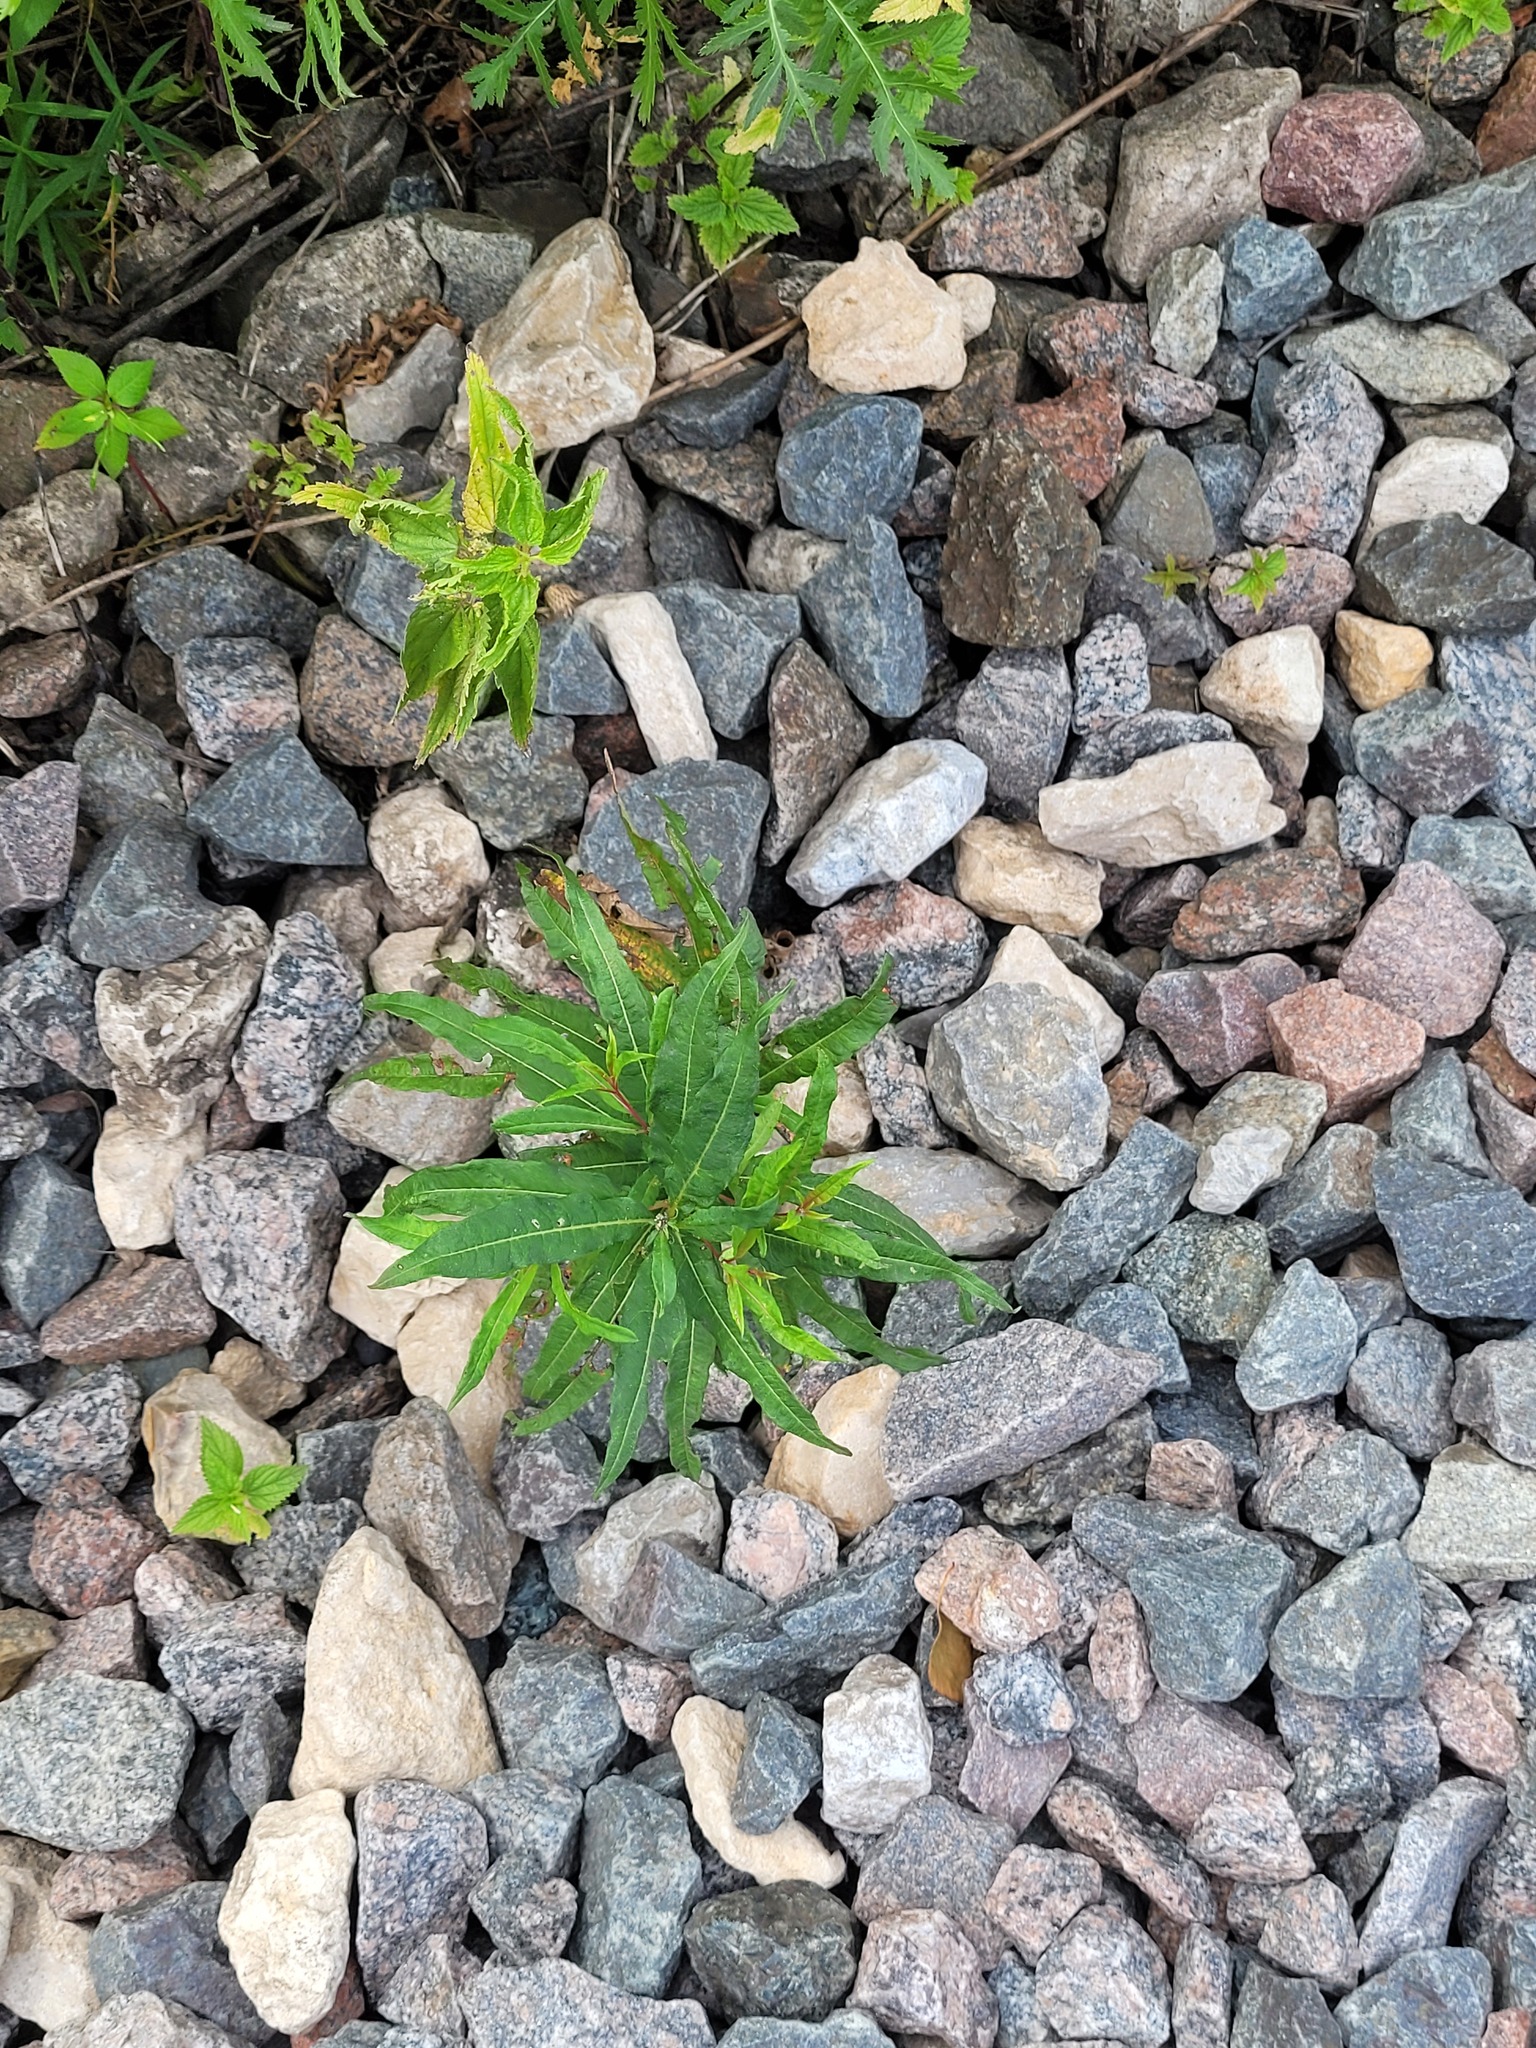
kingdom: Plantae
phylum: Tracheophyta
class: Magnoliopsida
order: Myrtales
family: Onagraceae
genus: Chamaenerion
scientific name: Chamaenerion angustifolium
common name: Fireweed
